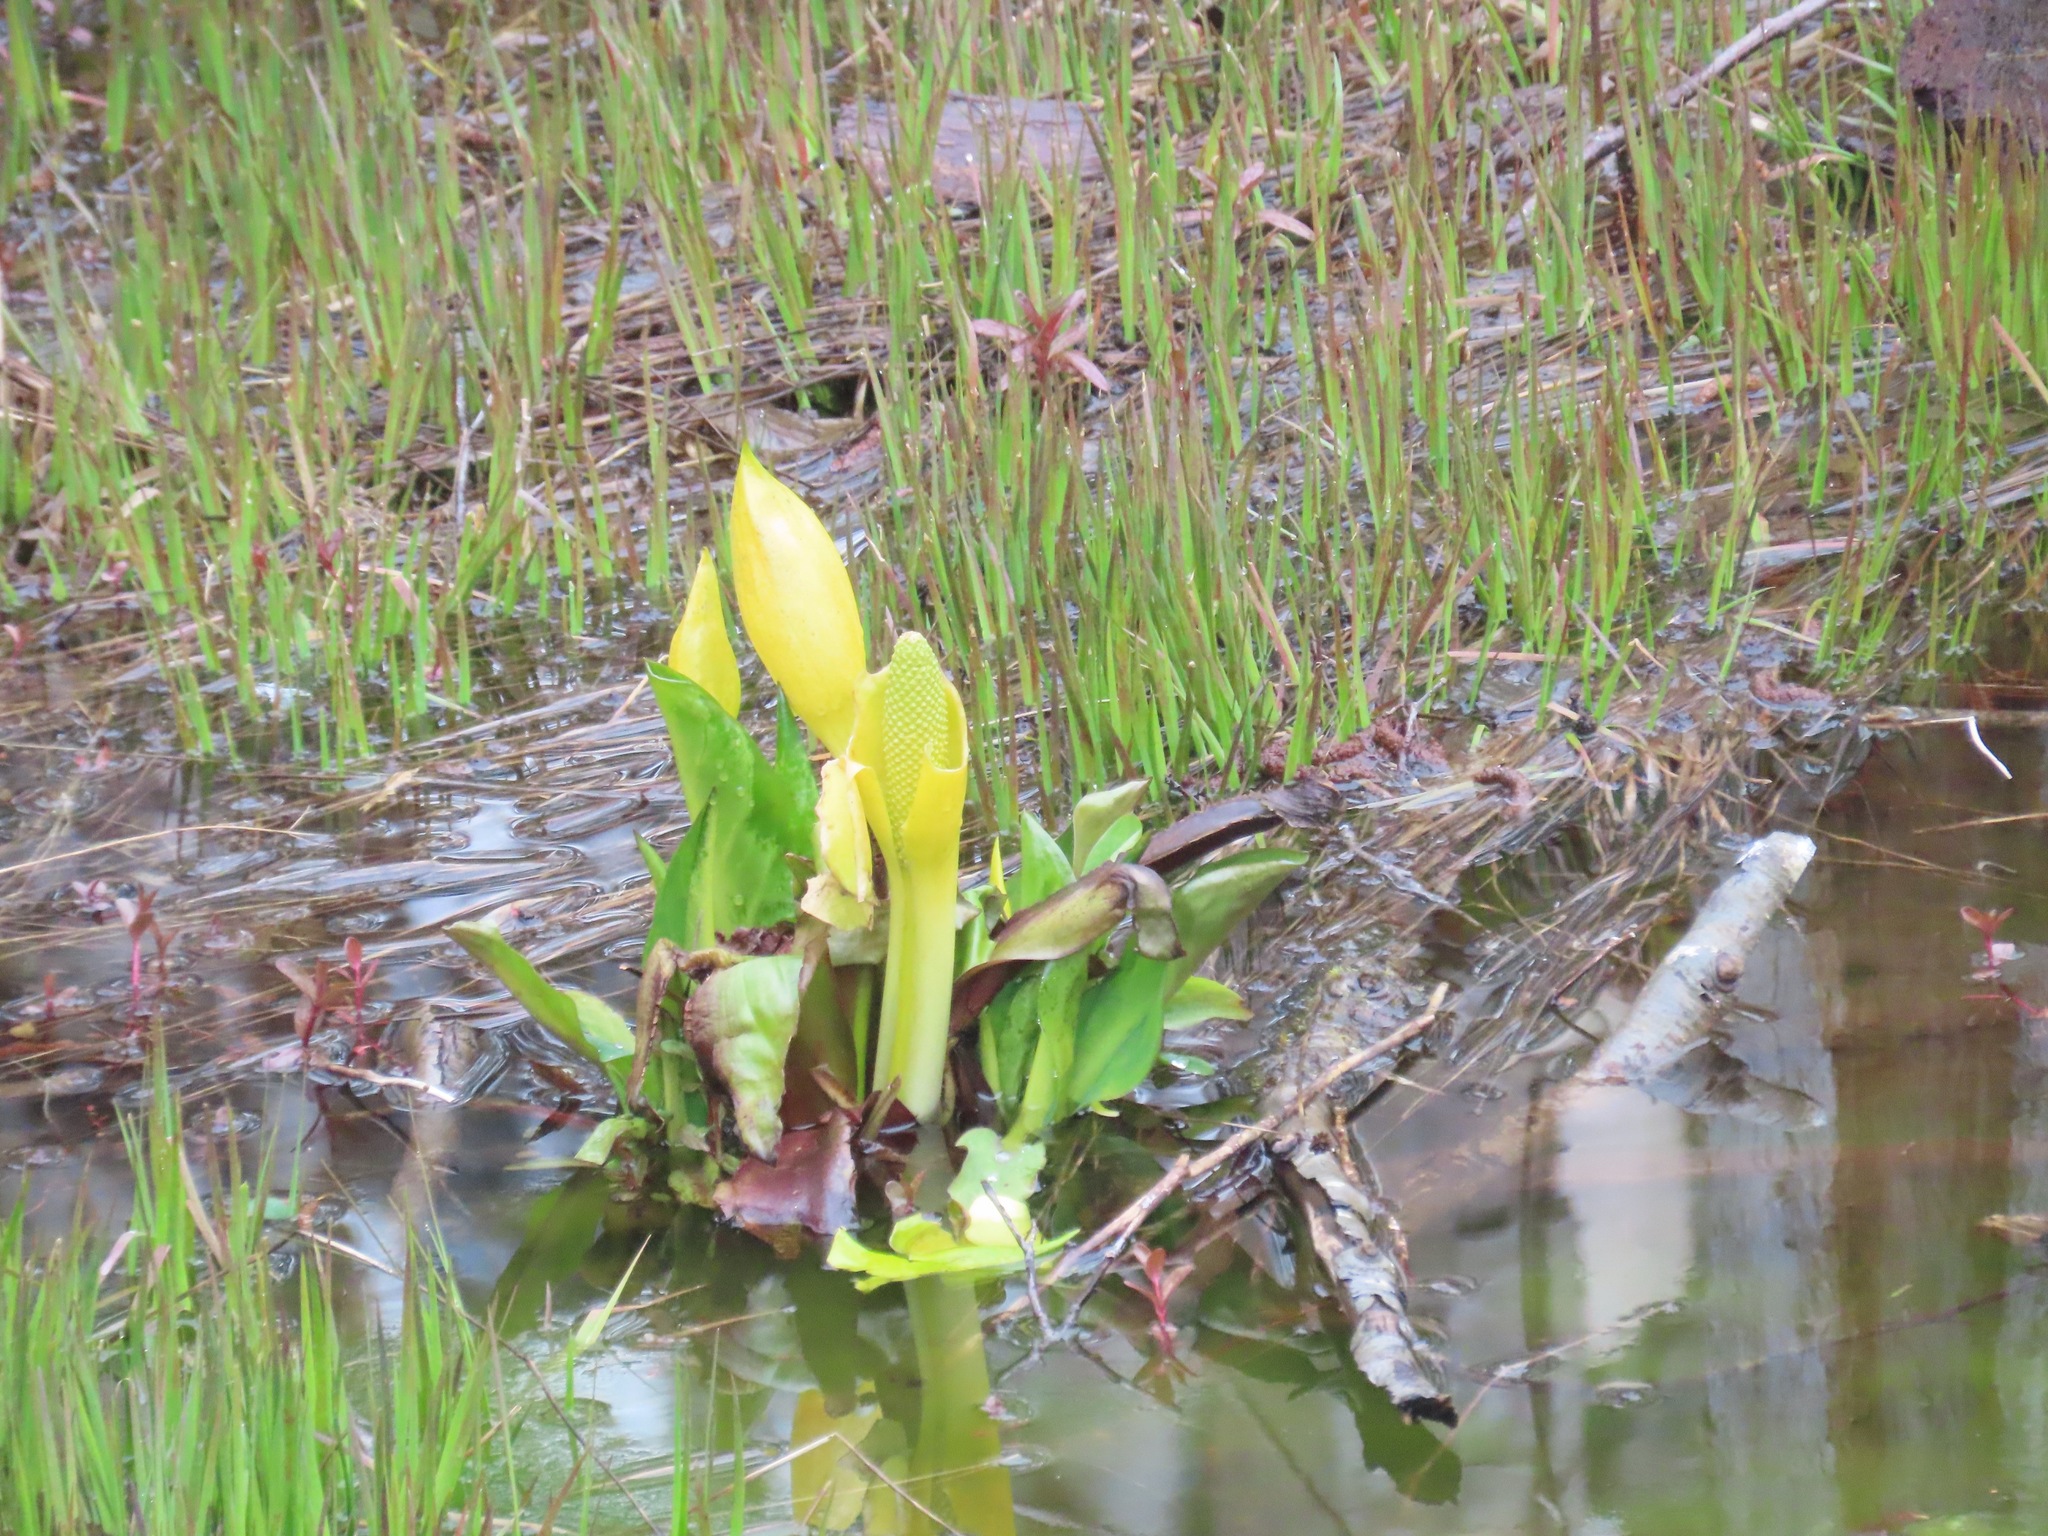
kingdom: Plantae
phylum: Tracheophyta
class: Liliopsida
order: Alismatales
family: Araceae
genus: Lysichiton
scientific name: Lysichiton americanus
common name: American skunk cabbage
